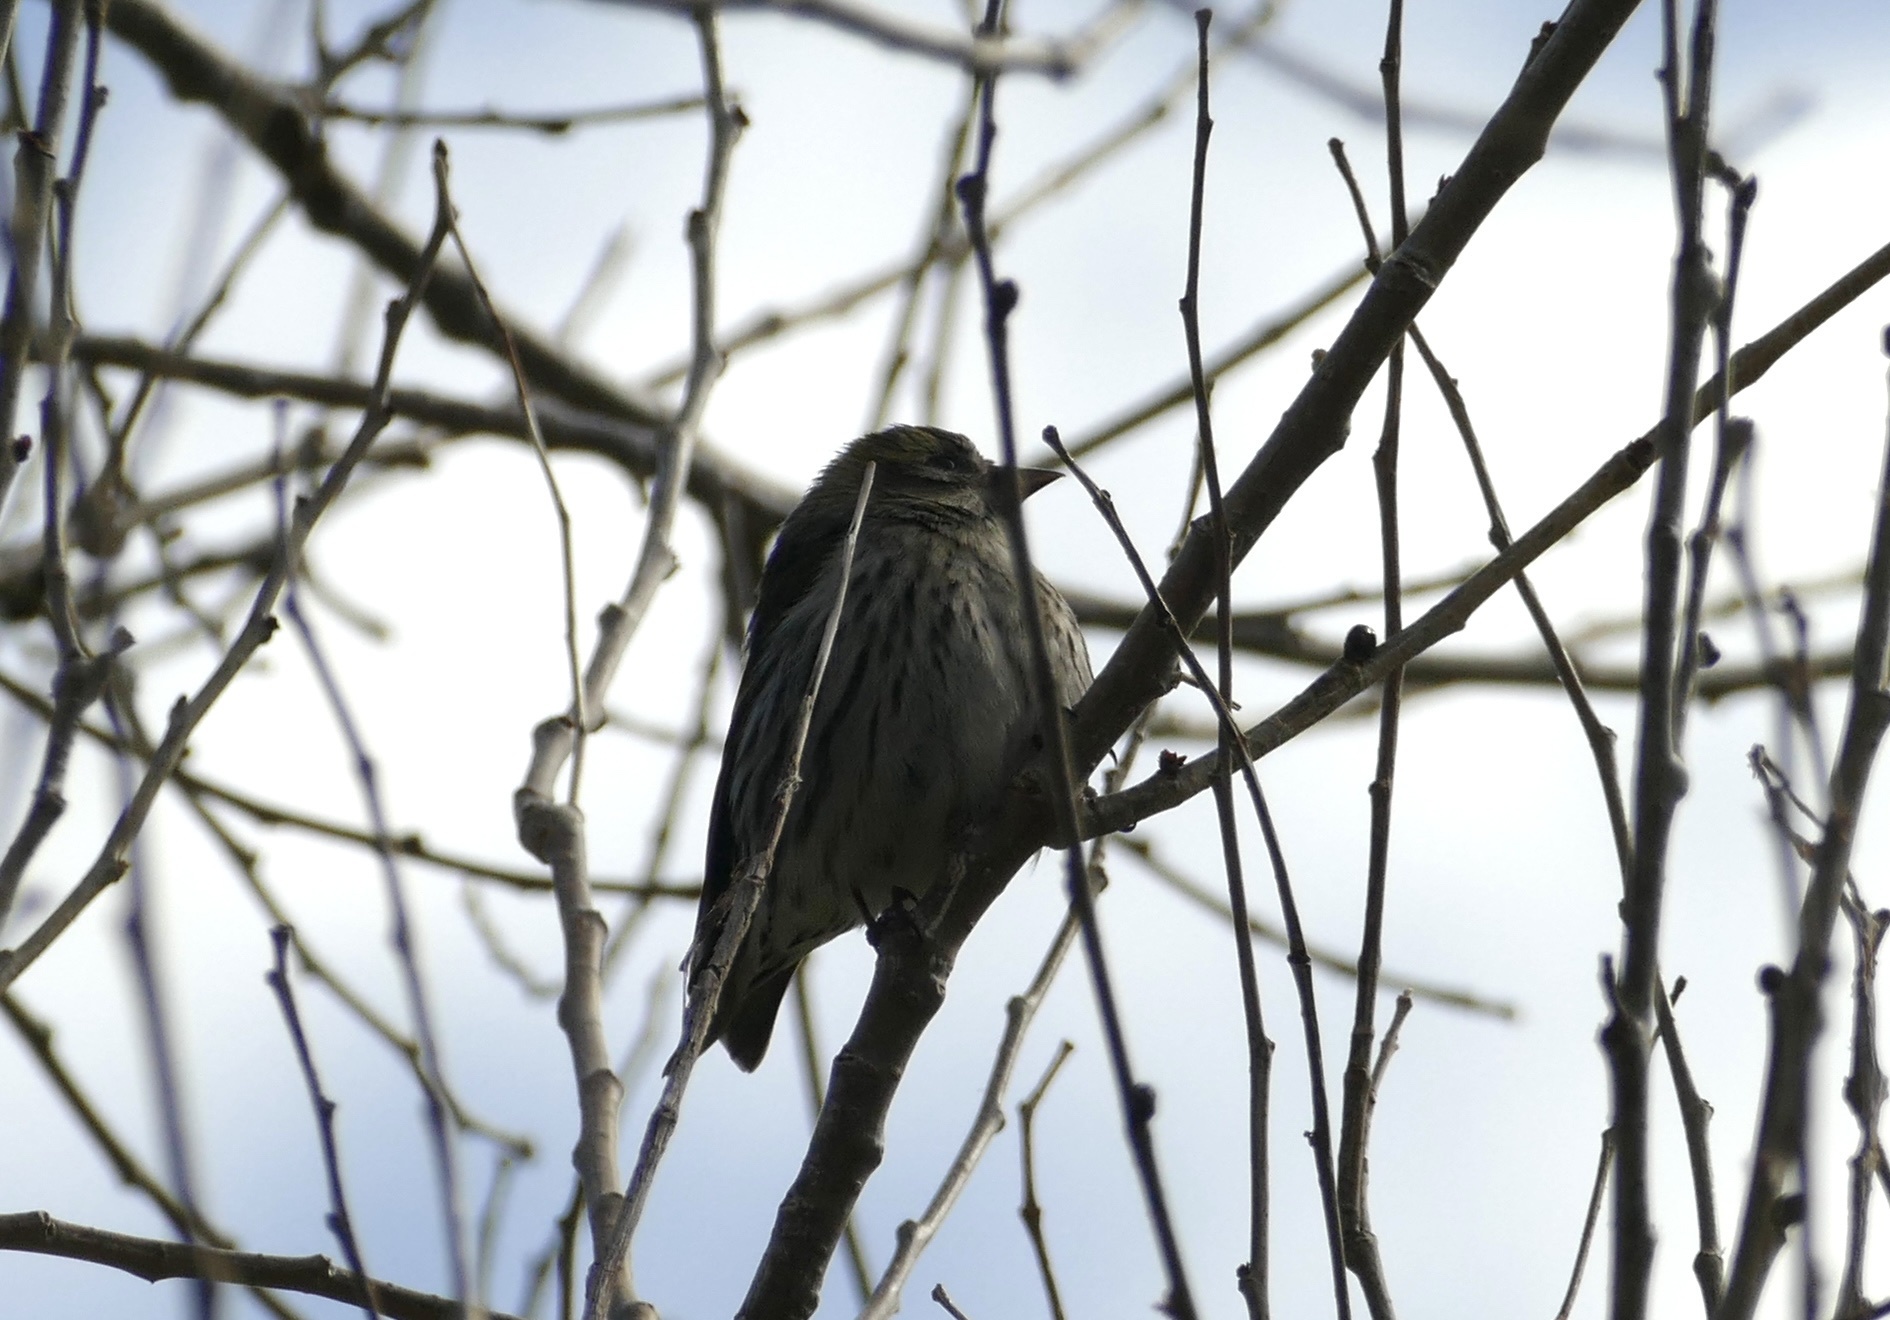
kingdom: Animalia
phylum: Chordata
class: Aves
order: Passeriformes
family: Fringillidae
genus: Spinus
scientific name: Spinus spinus
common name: Eurasian siskin
